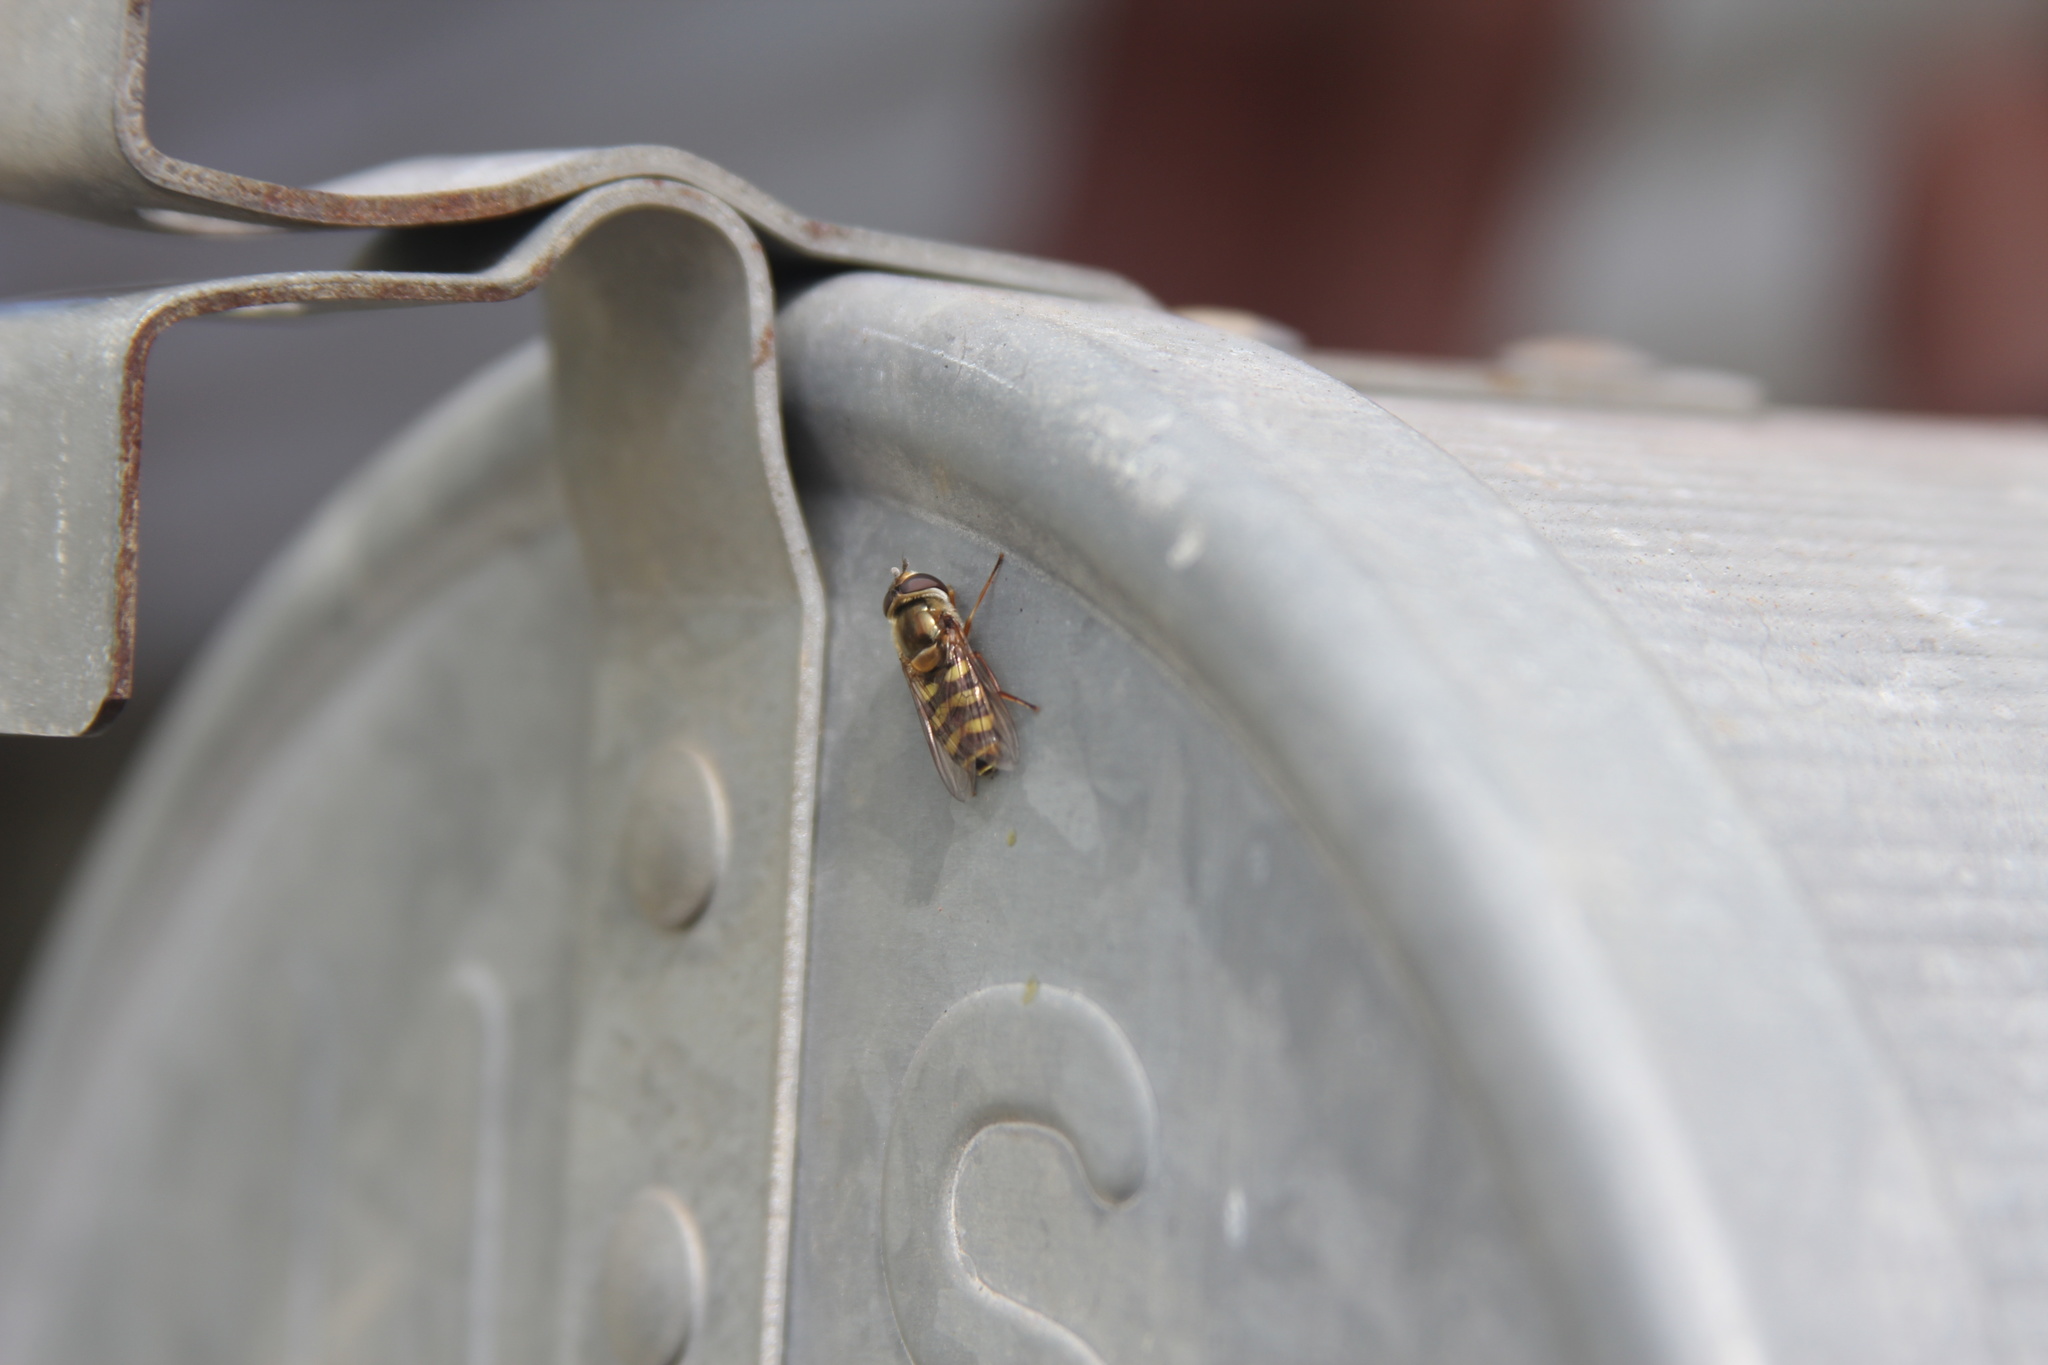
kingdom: Animalia
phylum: Arthropoda
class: Insecta
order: Diptera
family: Syrphidae
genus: Eupeodes
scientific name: Eupeodes fumipennis
